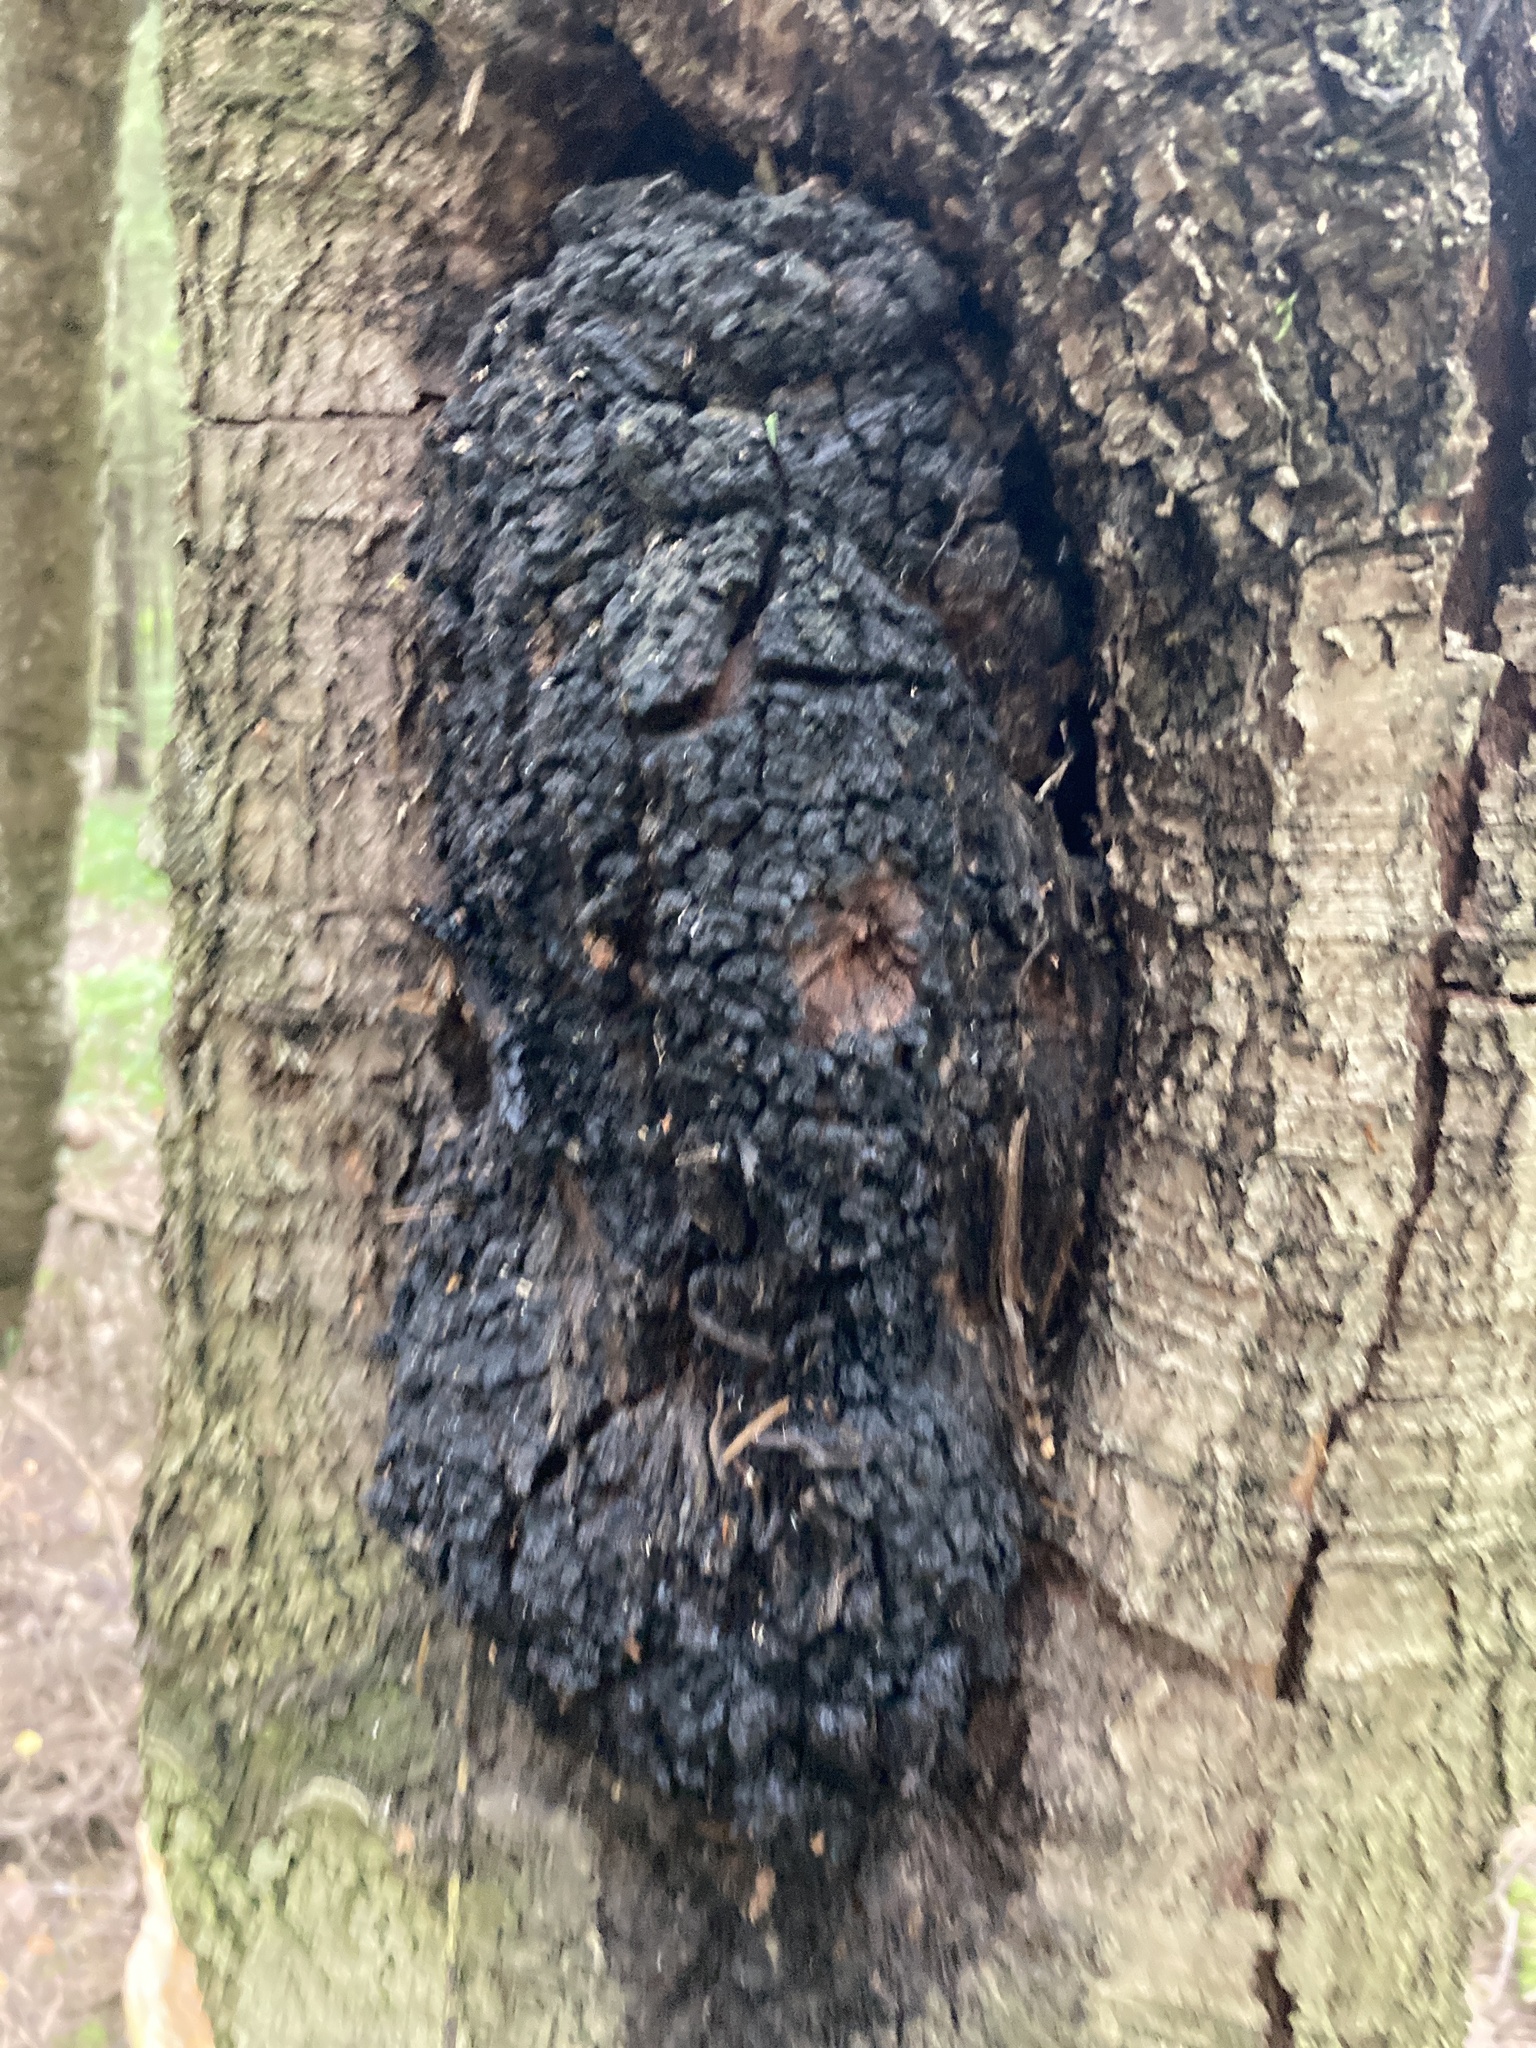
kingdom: Fungi
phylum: Basidiomycota
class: Agaricomycetes
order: Hymenochaetales
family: Hymenochaetaceae
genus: Inonotus
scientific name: Inonotus obliquus
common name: Chaga
